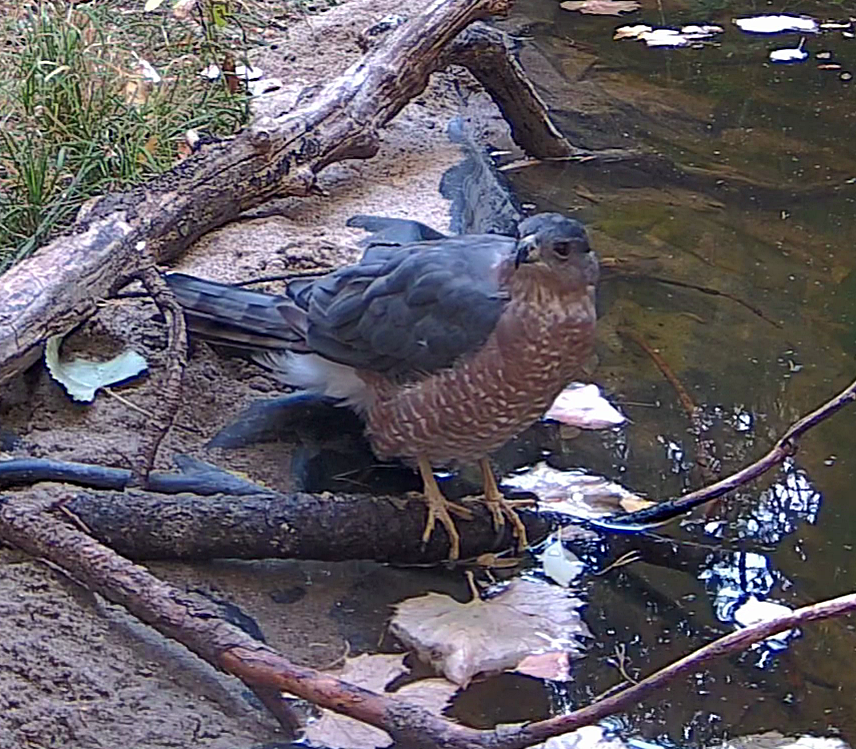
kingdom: Animalia
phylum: Chordata
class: Aves
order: Accipitriformes
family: Accipitridae
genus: Accipiter
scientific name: Accipiter cooperii
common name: Cooper's hawk
